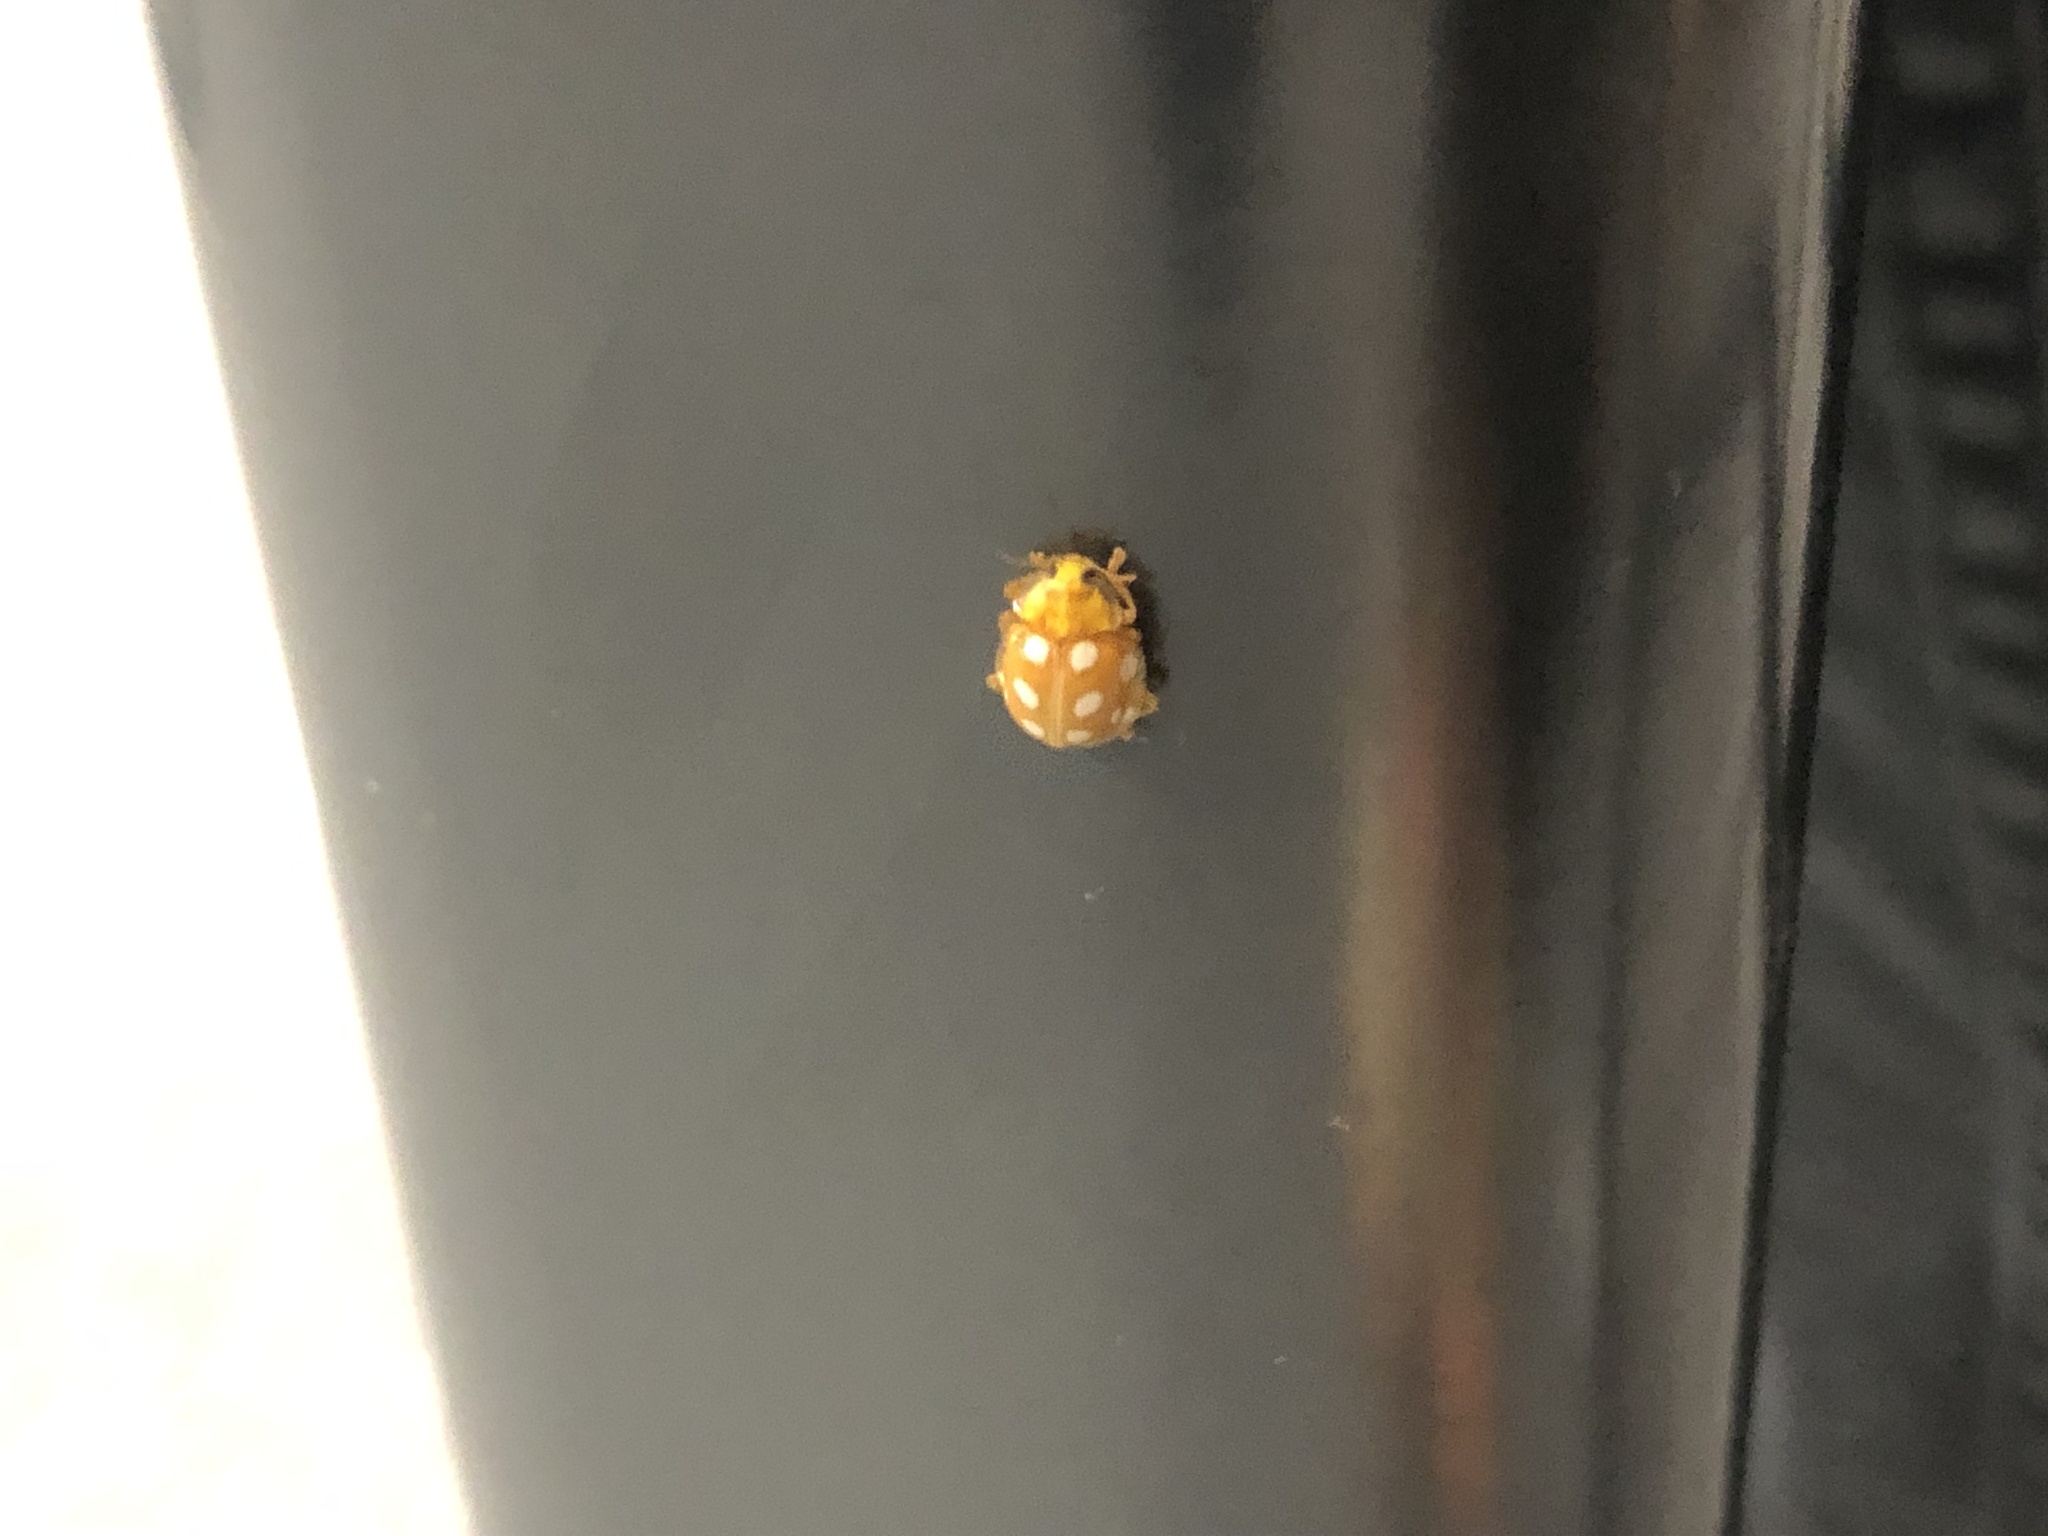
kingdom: Animalia
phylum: Arthropoda
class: Insecta
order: Coleoptera
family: Coccinellidae
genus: Halyzia
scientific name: Halyzia sedecimguttata
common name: Orange ladybird
